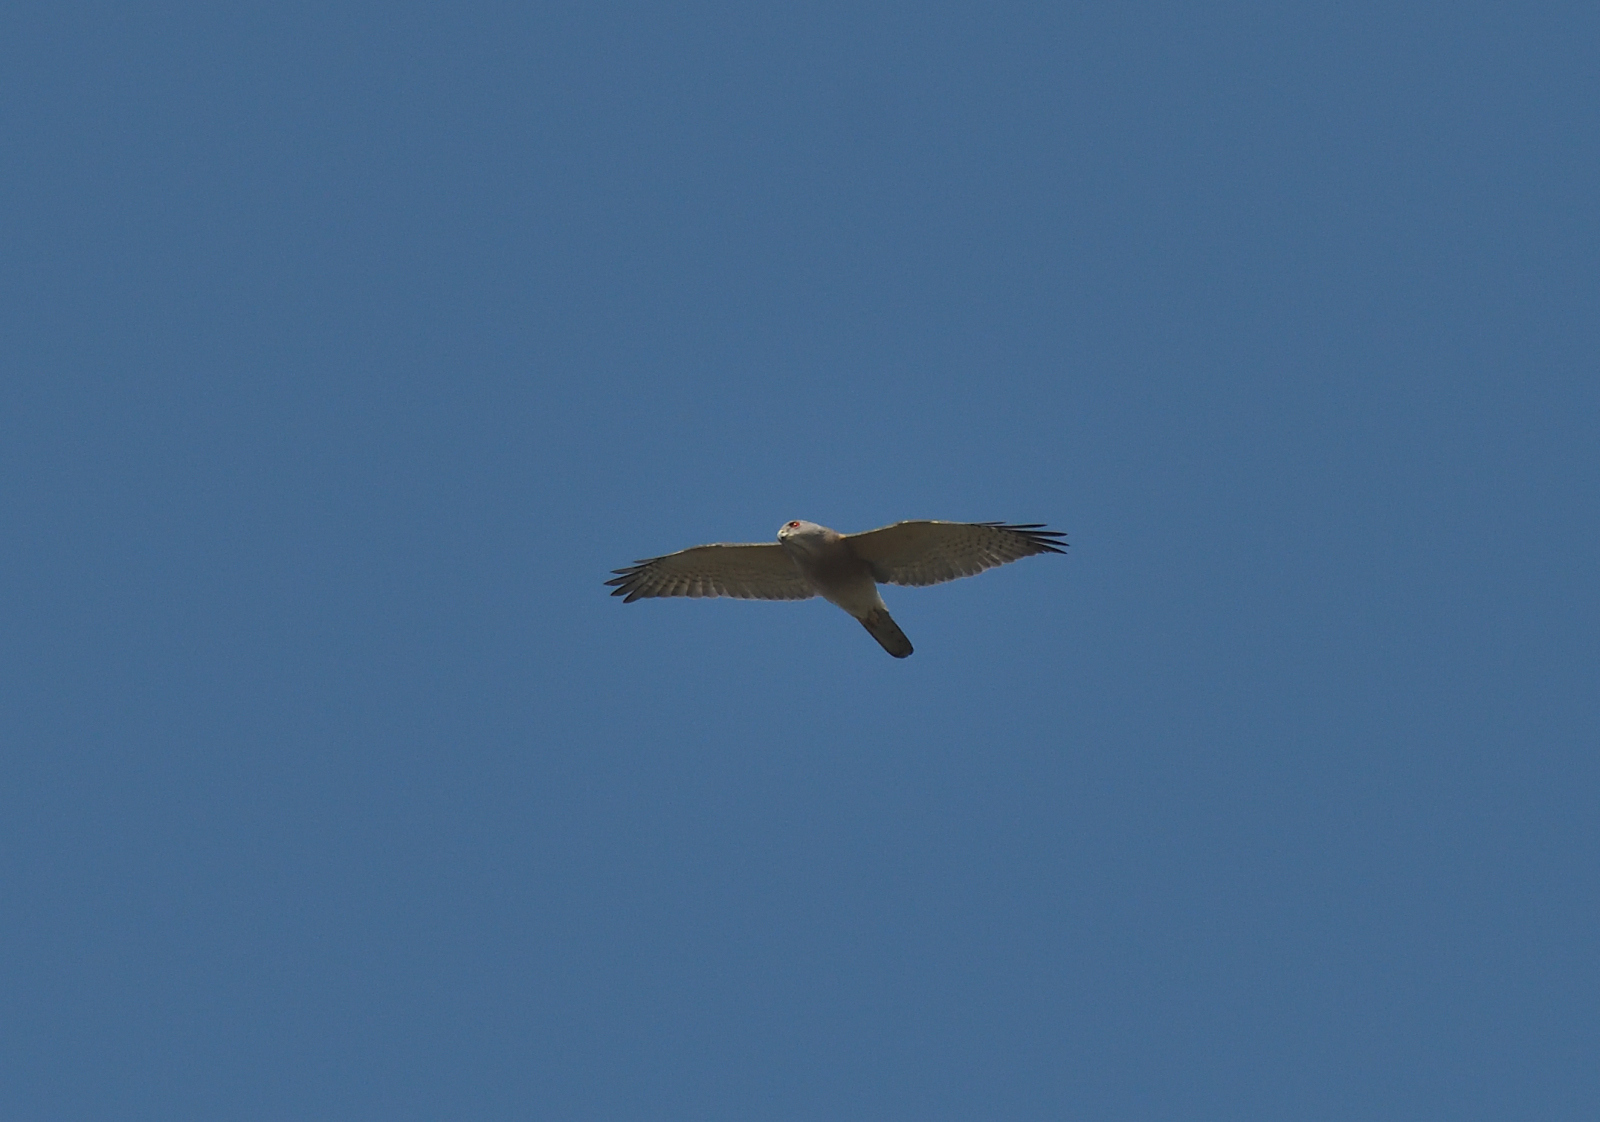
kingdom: Animalia
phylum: Chordata
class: Aves
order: Accipitriformes
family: Accipitridae
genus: Accipiter
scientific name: Accipiter badius
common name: Shikra
